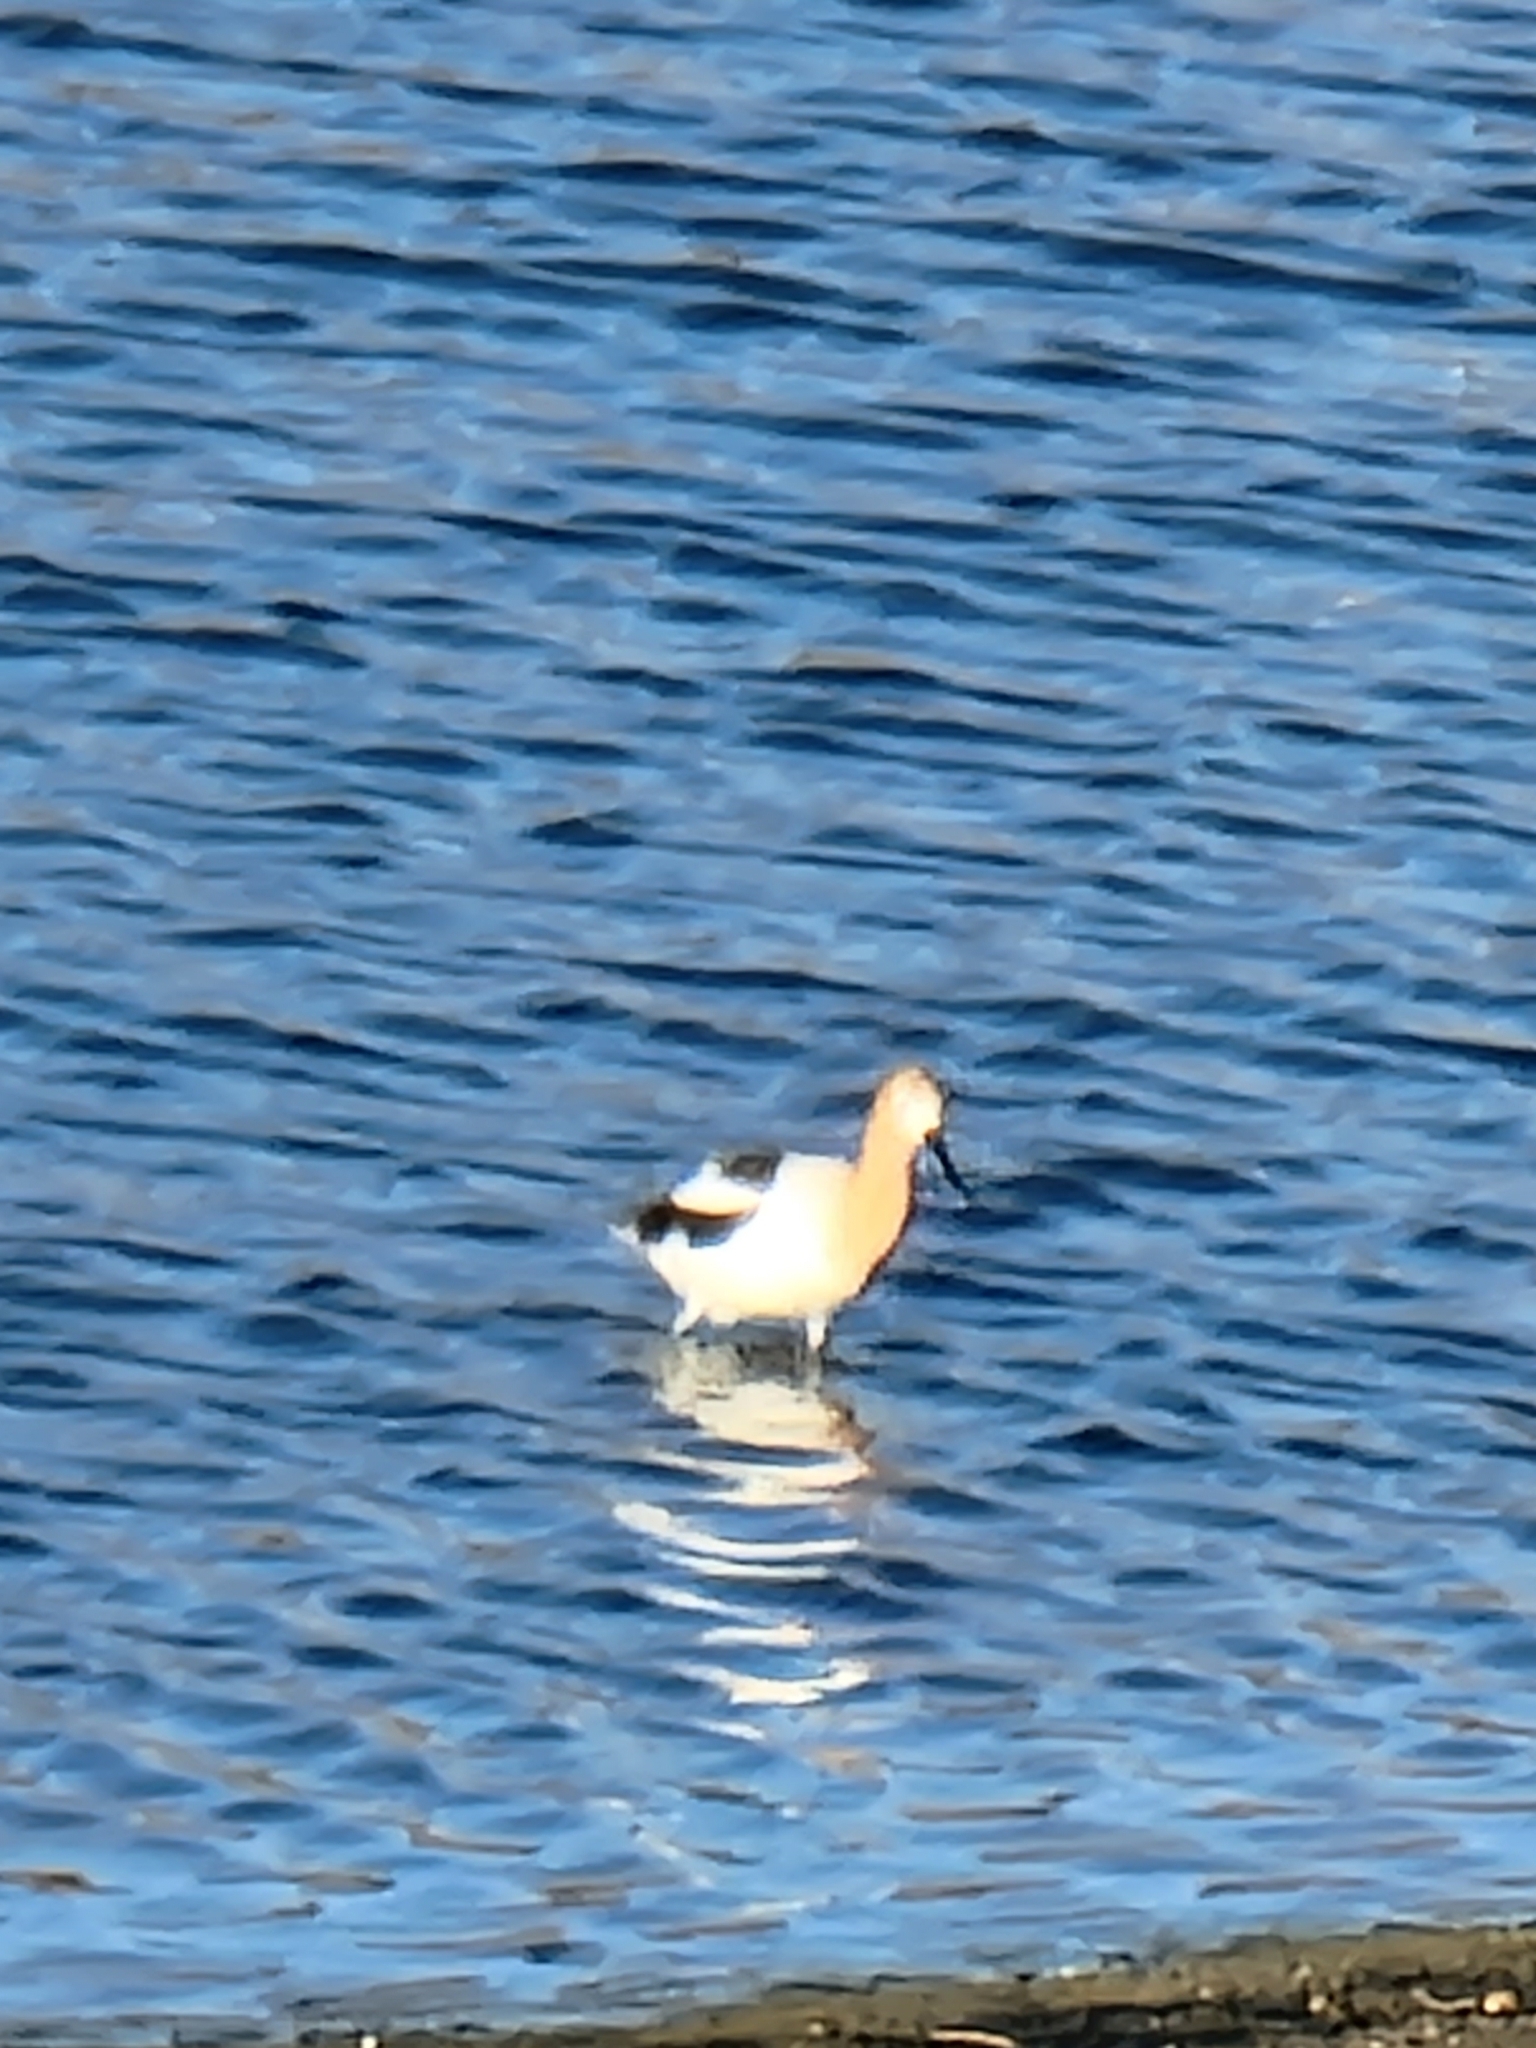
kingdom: Animalia
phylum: Chordata
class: Aves
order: Charadriiformes
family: Recurvirostridae
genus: Recurvirostra
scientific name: Recurvirostra americana
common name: American avocet
